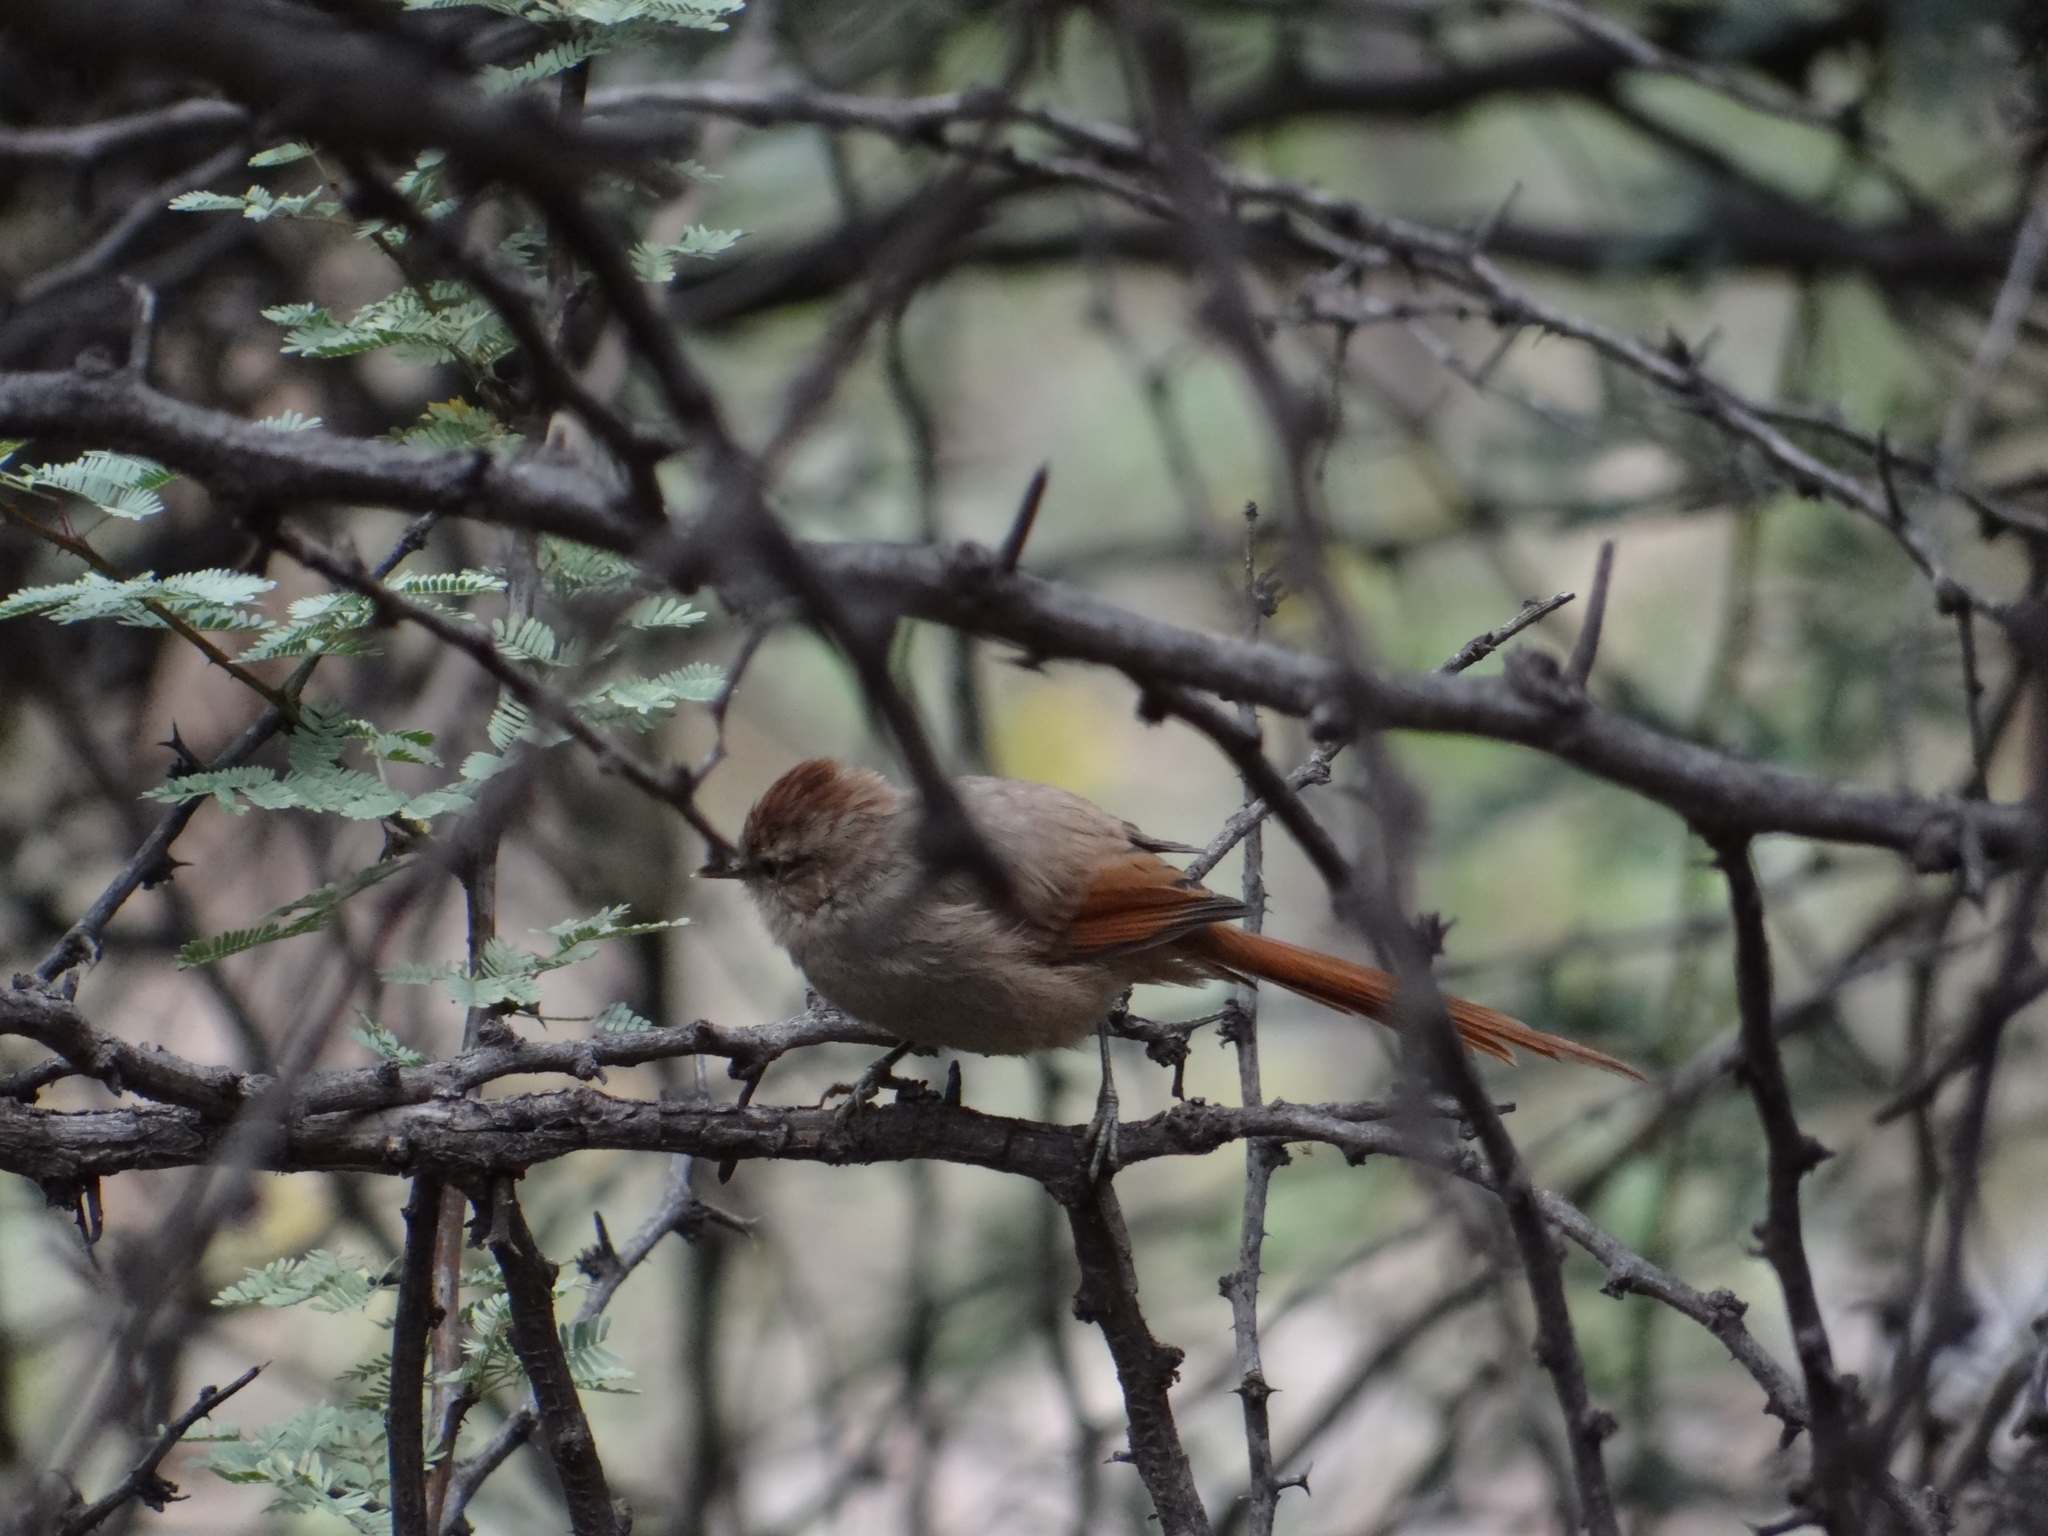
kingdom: Animalia
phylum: Chordata
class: Aves
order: Passeriformes
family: Furnariidae
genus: Leptasthenura
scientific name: Leptasthenura fuliginiceps
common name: Brown-capped tit-spinetail
